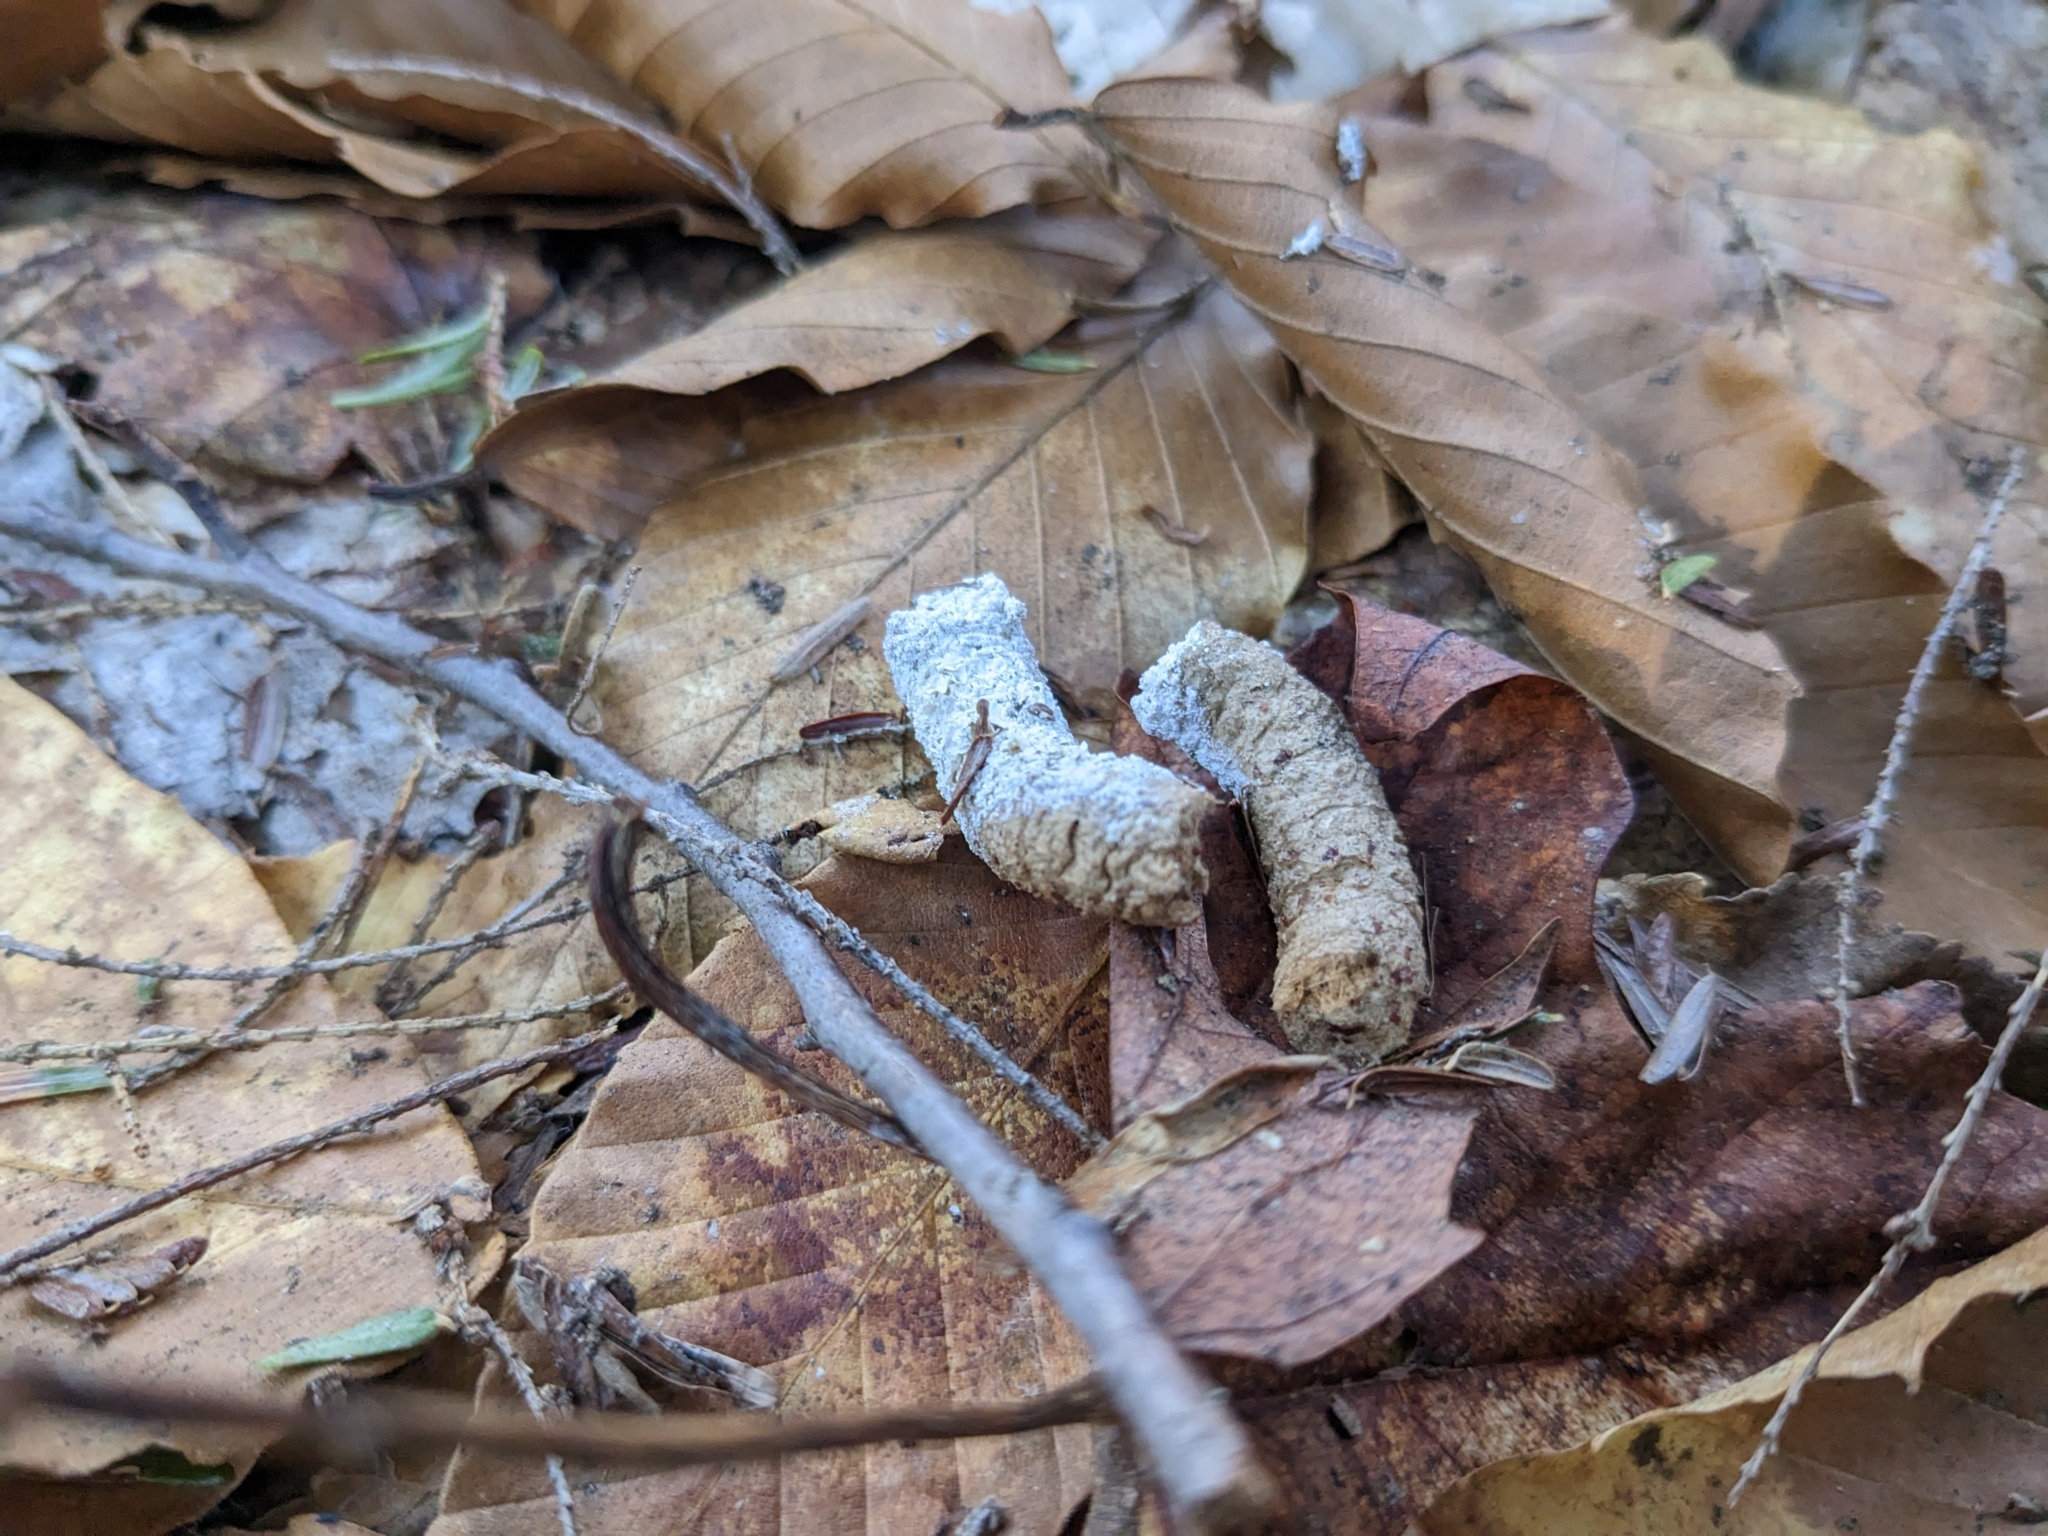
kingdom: Animalia
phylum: Chordata
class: Aves
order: Galliformes
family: Phasianidae
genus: Bonasa
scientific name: Bonasa umbellus
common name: Ruffed grouse
